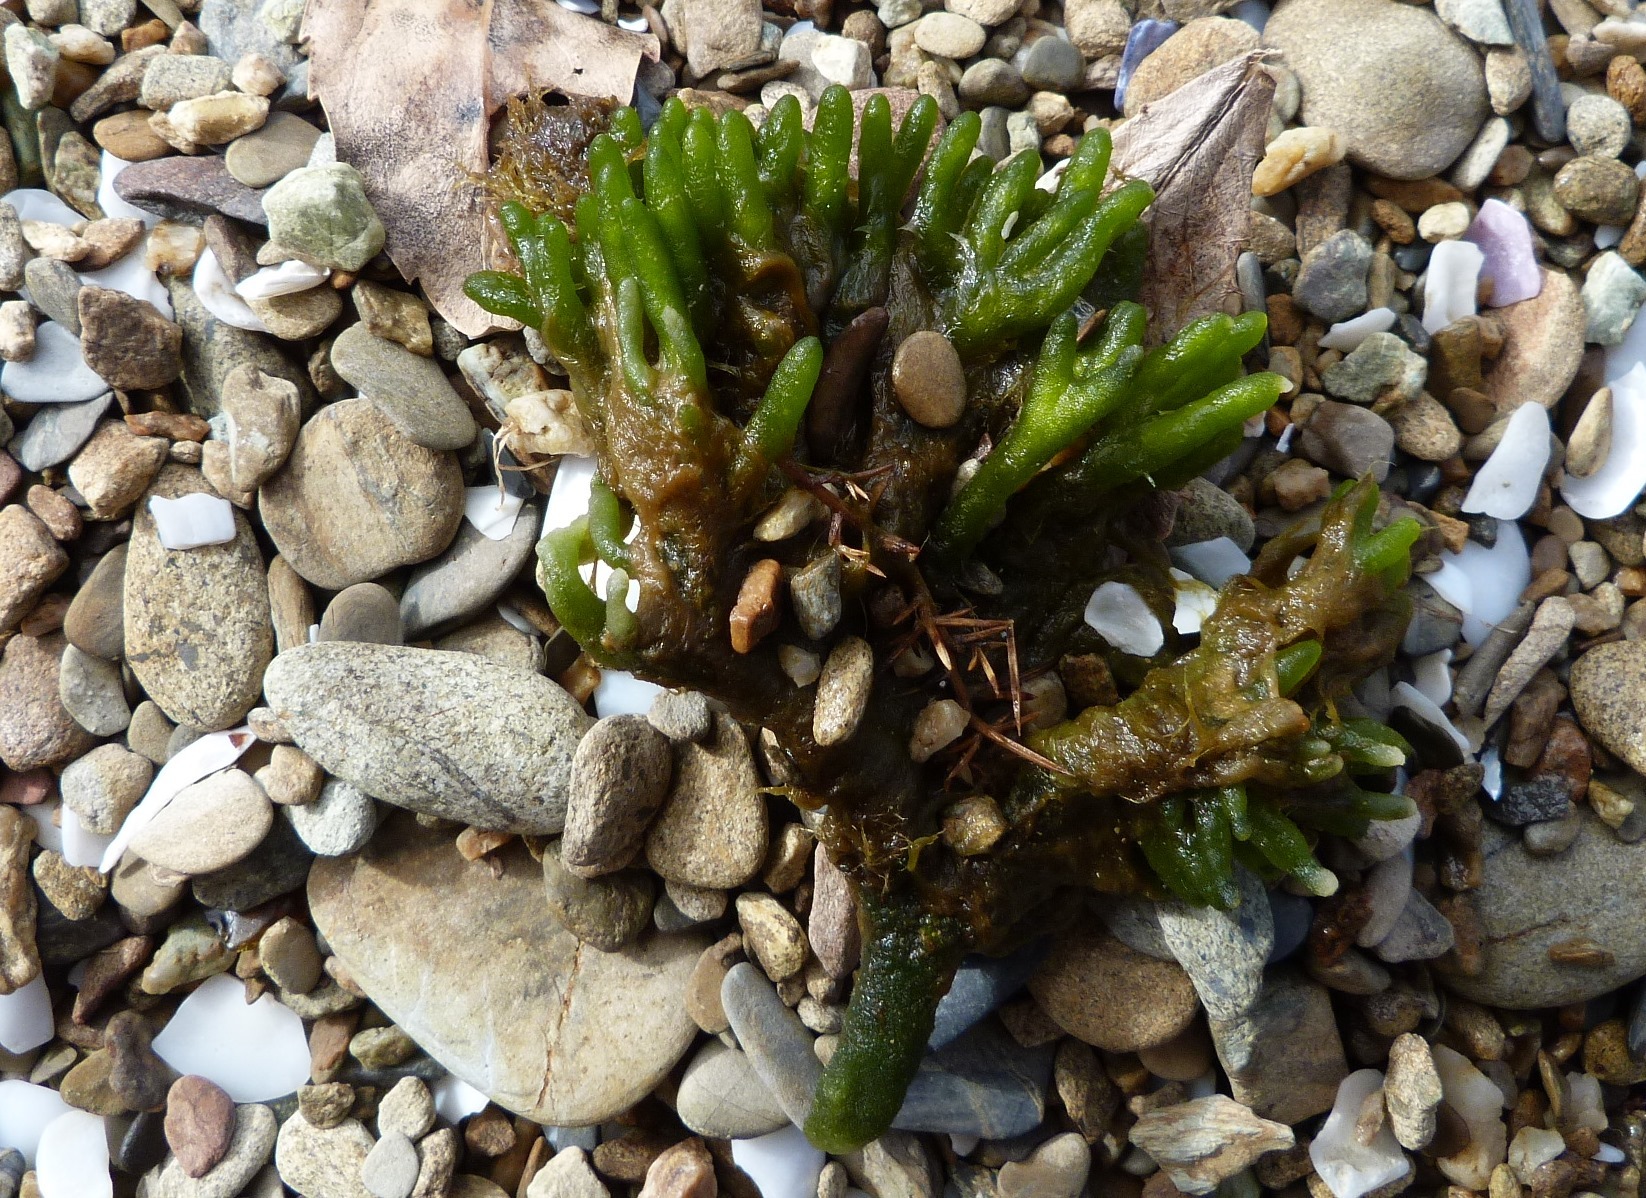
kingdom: Plantae
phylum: Chlorophyta
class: Ulvophyceae
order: Bryopsidales
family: Codiaceae
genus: Codium
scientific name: Codium fragile
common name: Dead man's fingers
